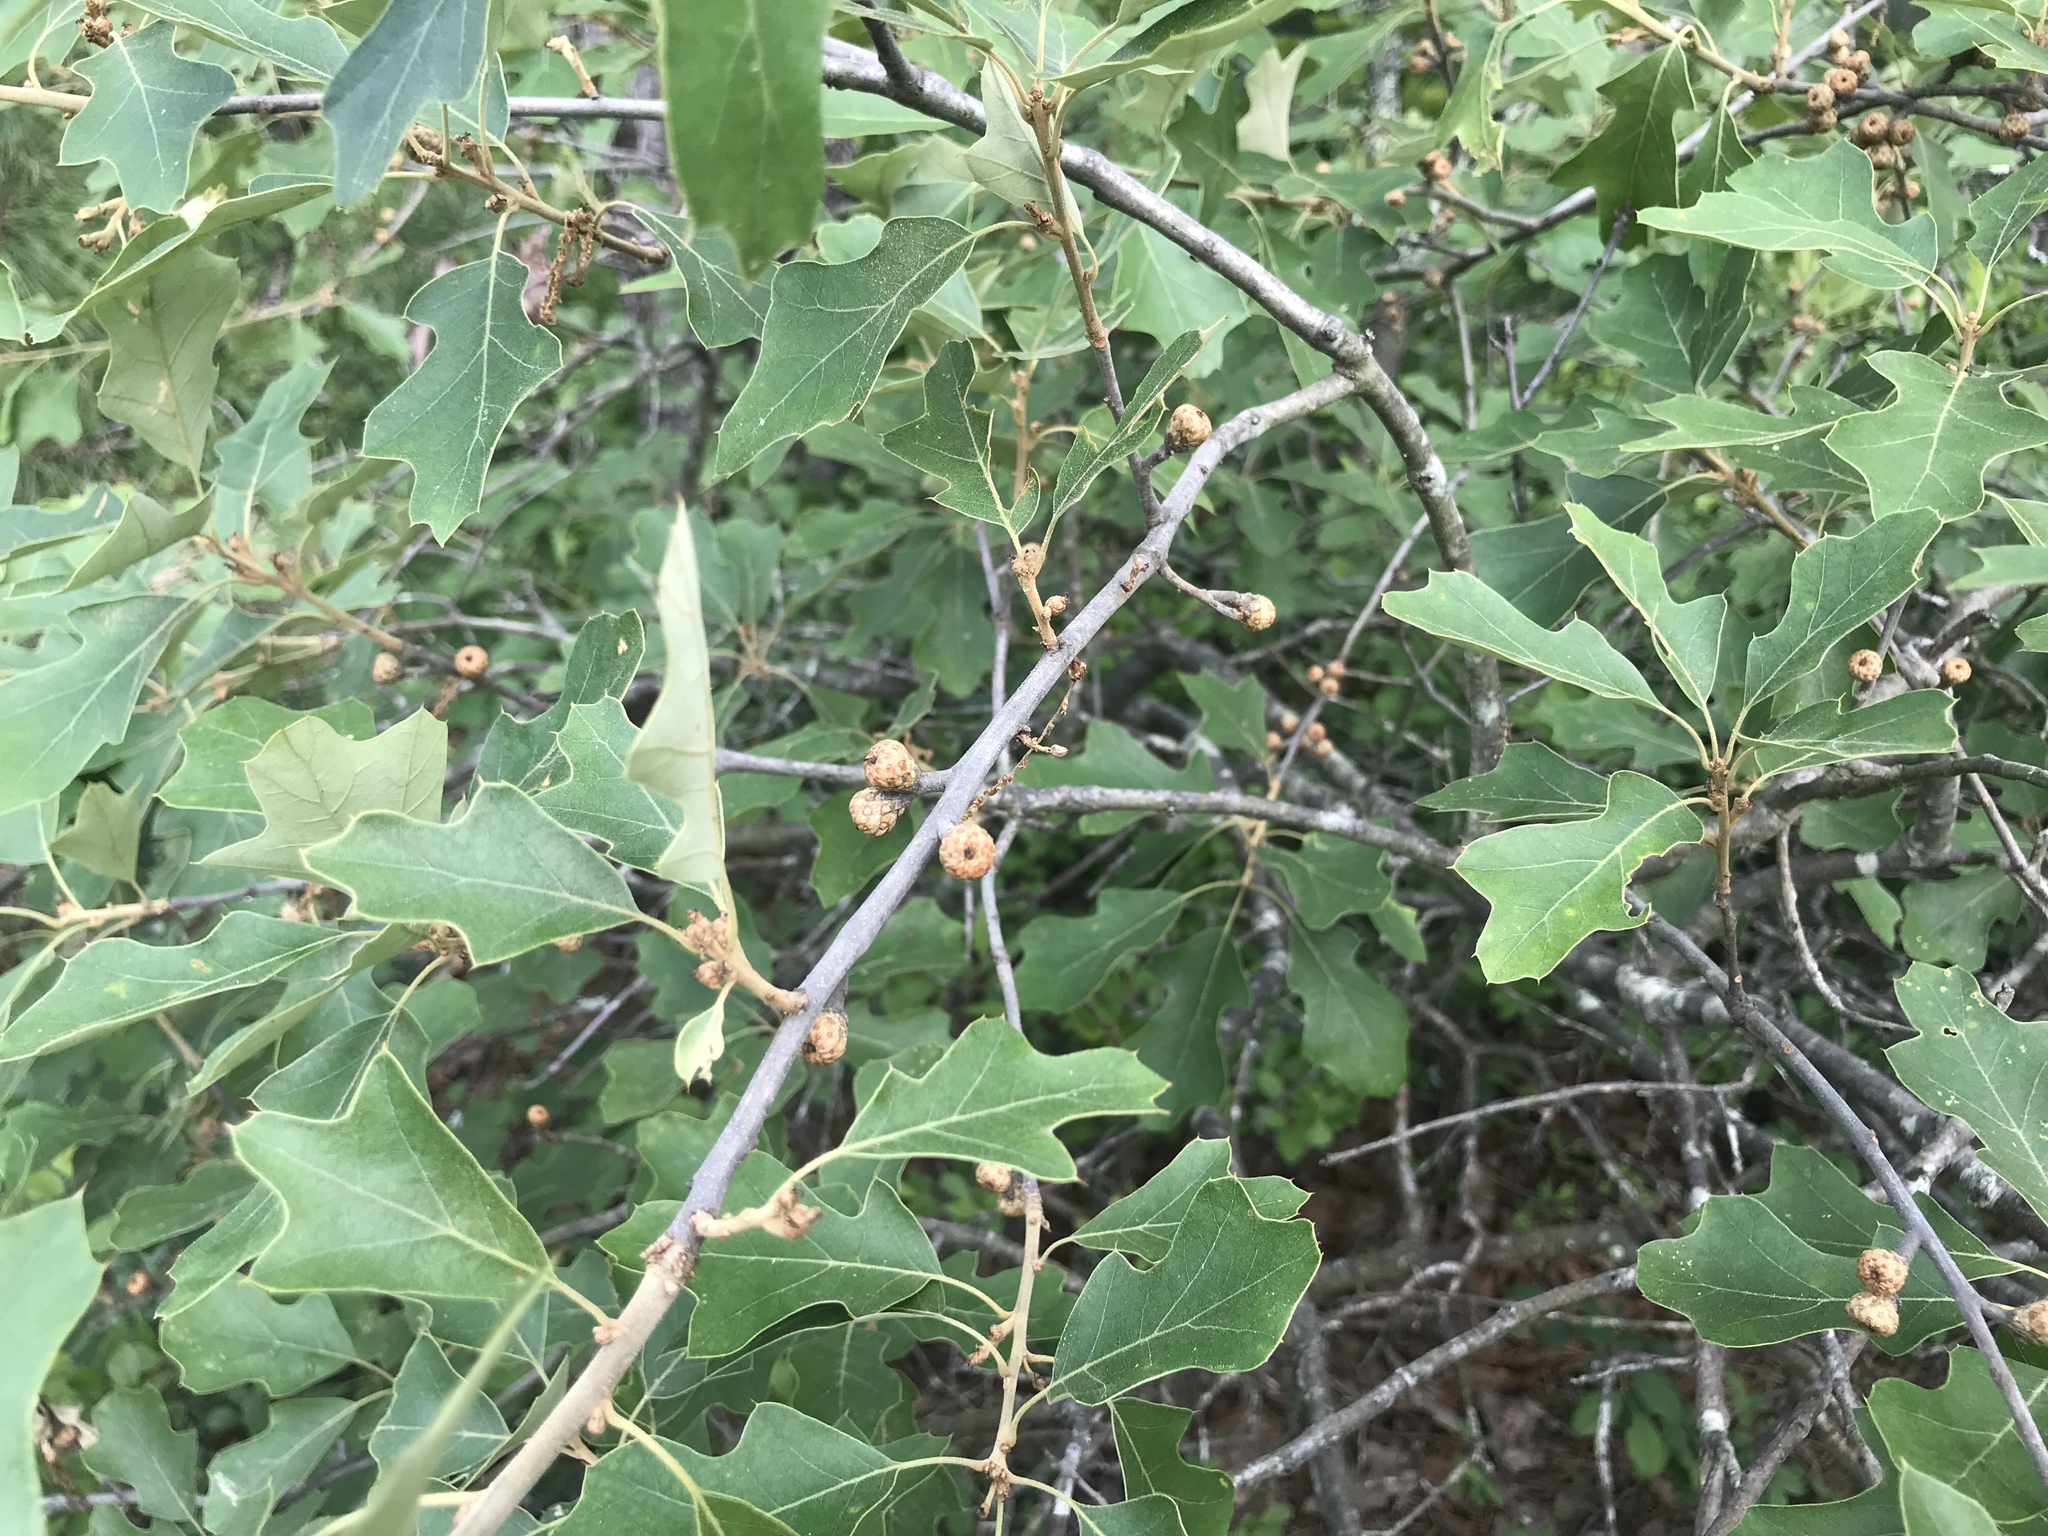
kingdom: Plantae
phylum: Tracheophyta
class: Magnoliopsida
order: Fagales
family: Fagaceae
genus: Quercus
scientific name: Quercus ilicifolia
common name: Bear oak
